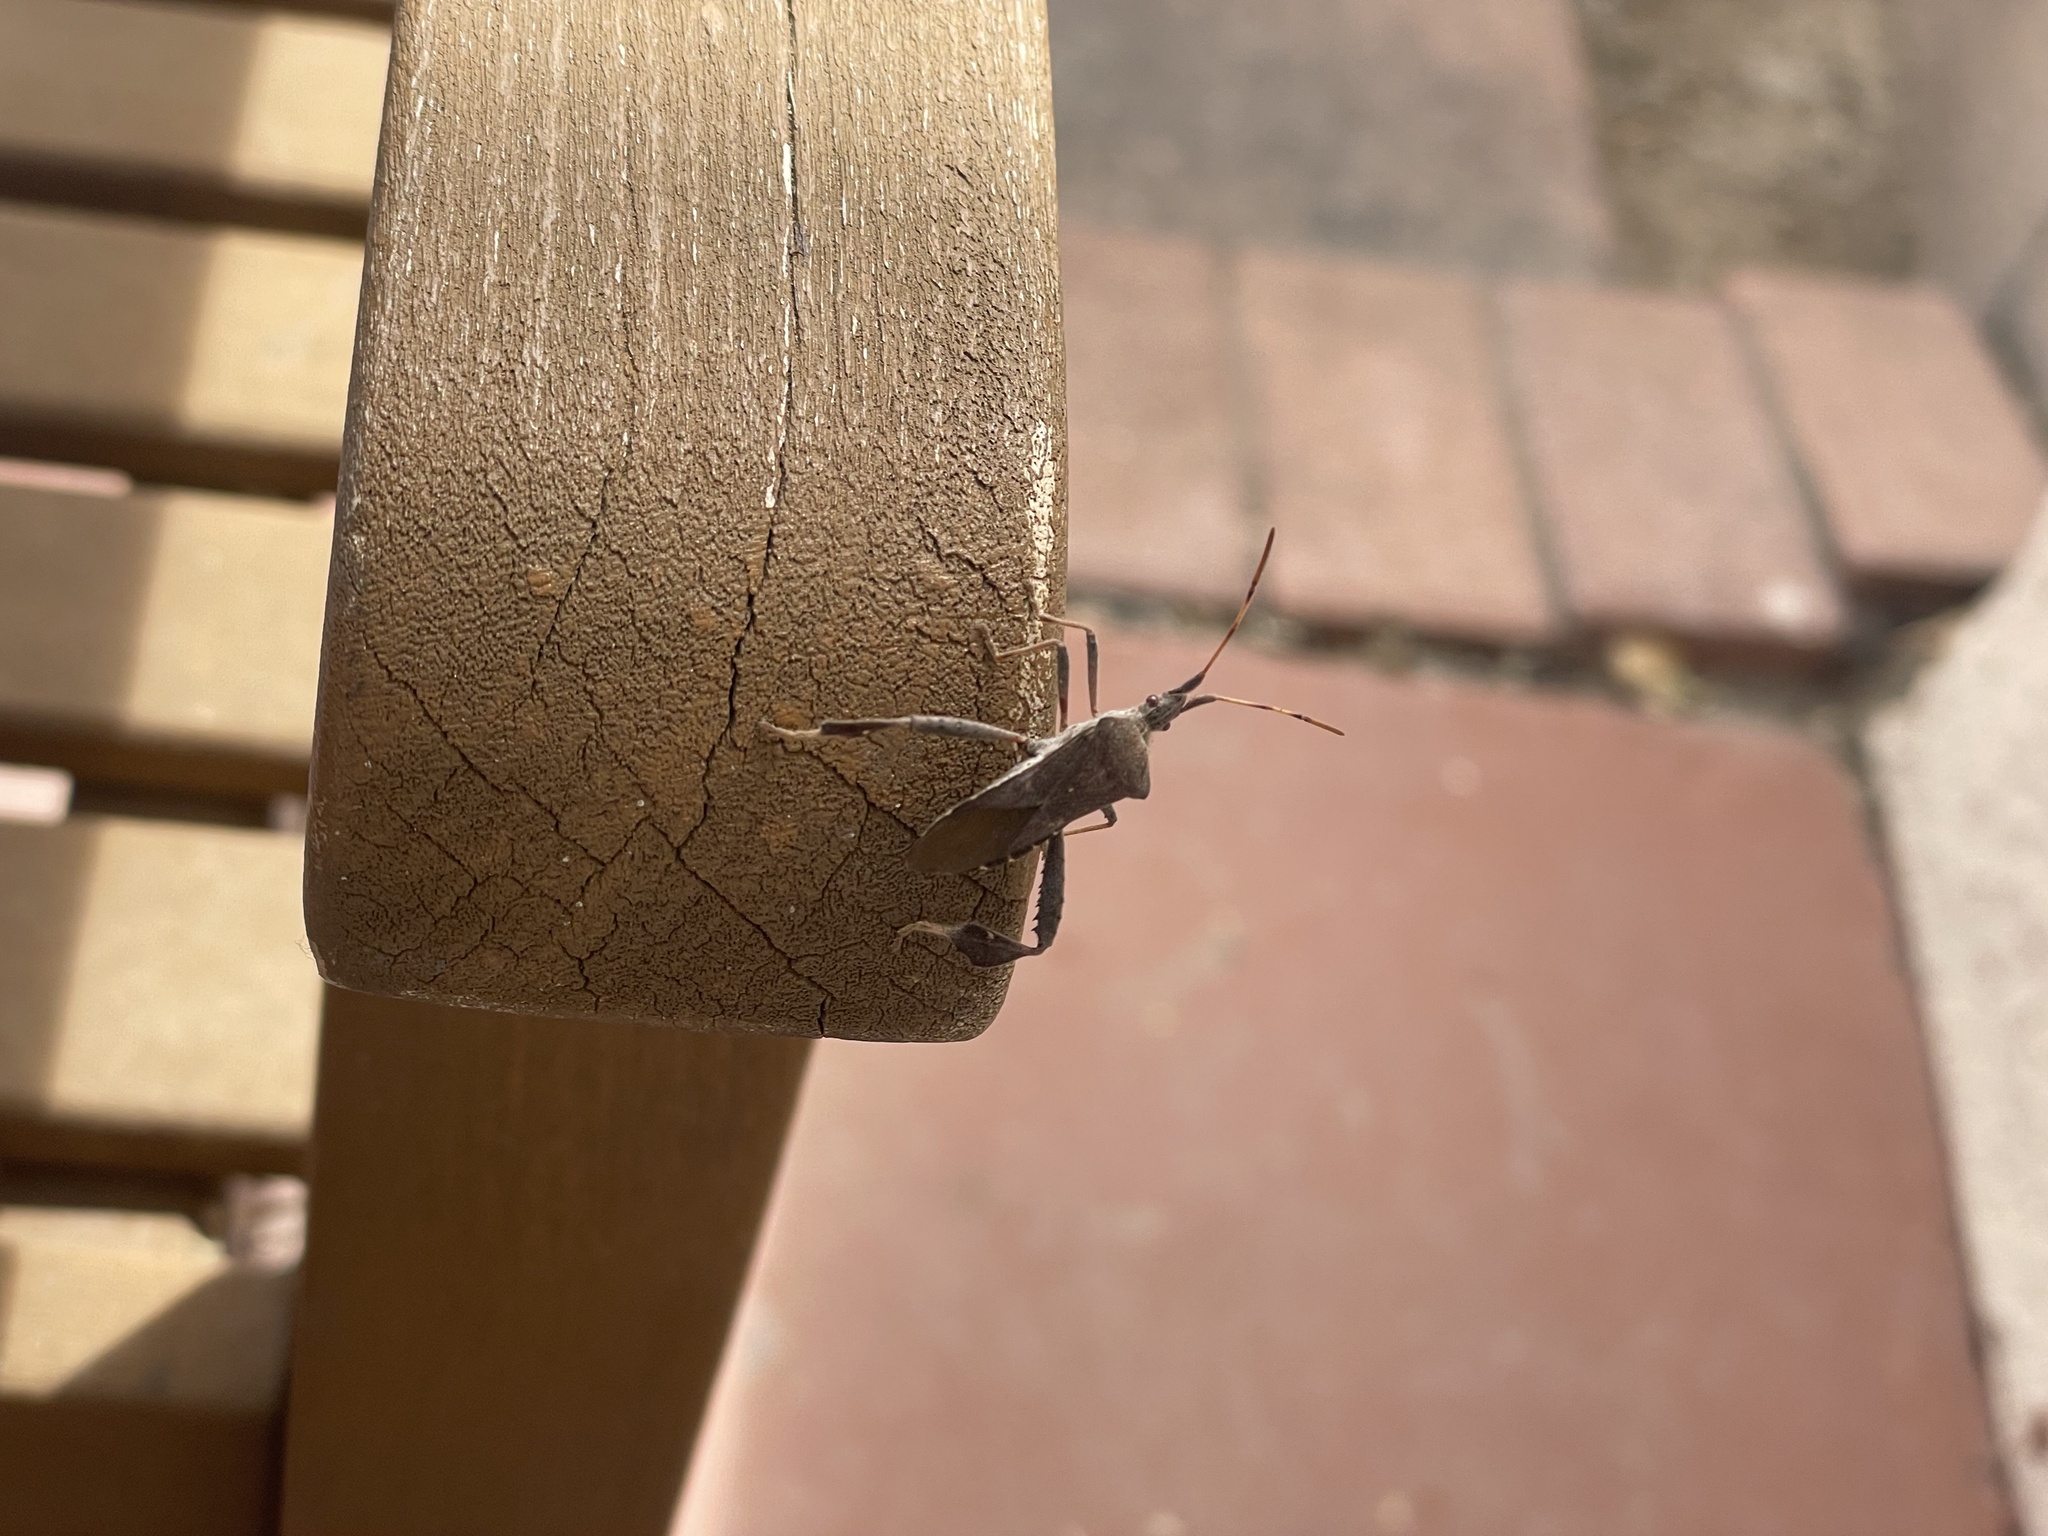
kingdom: Animalia
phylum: Arthropoda
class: Insecta
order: Hemiptera
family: Coreidae
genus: Leptoglossus
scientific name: Leptoglossus oppositus
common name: Northern leaf-footed bug
